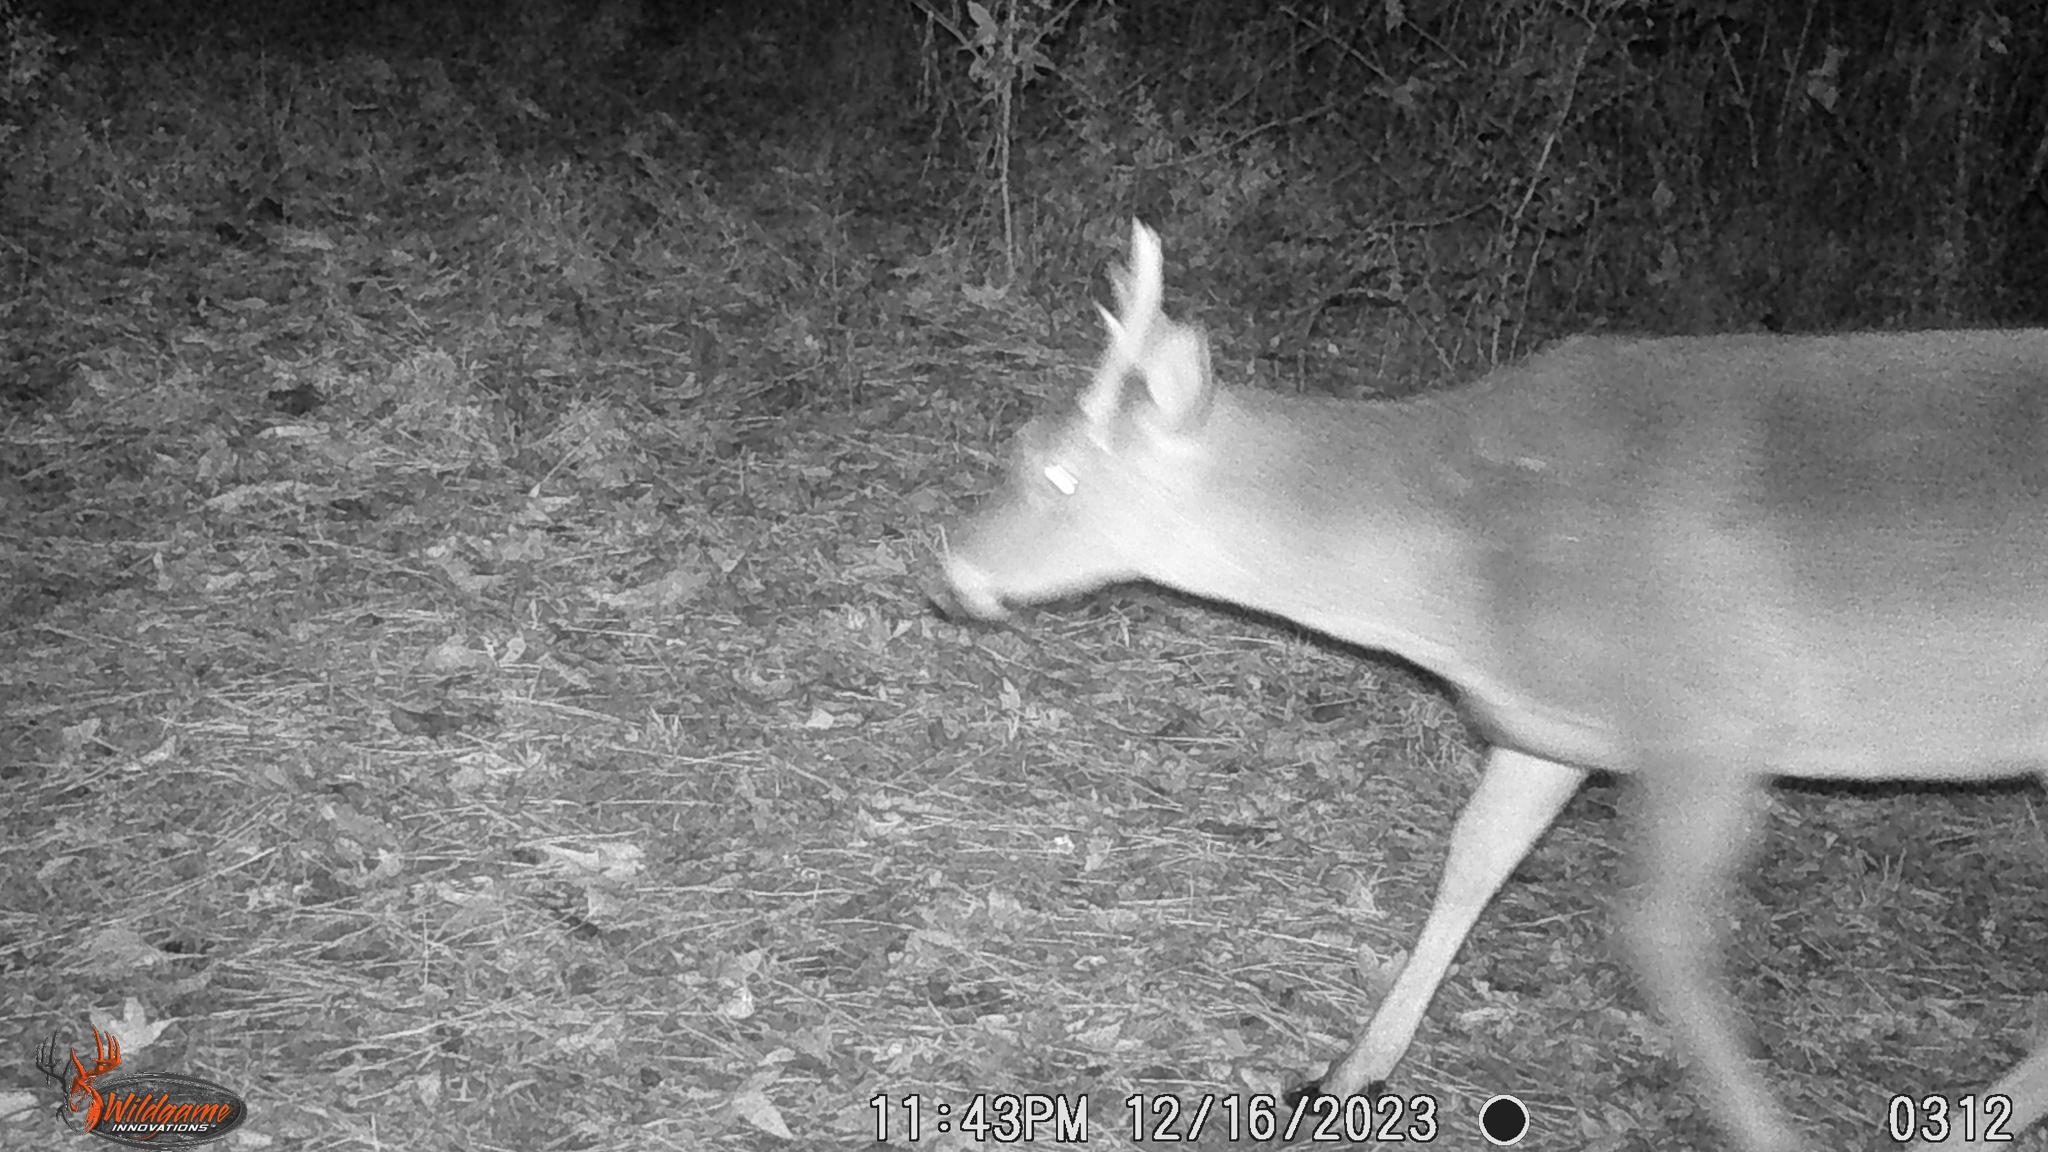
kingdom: Animalia
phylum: Chordata
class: Mammalia
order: Artiodactyla
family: Cervidae
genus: Odocoileus
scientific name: Odocoileus virginianus
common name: White-tailed deer
